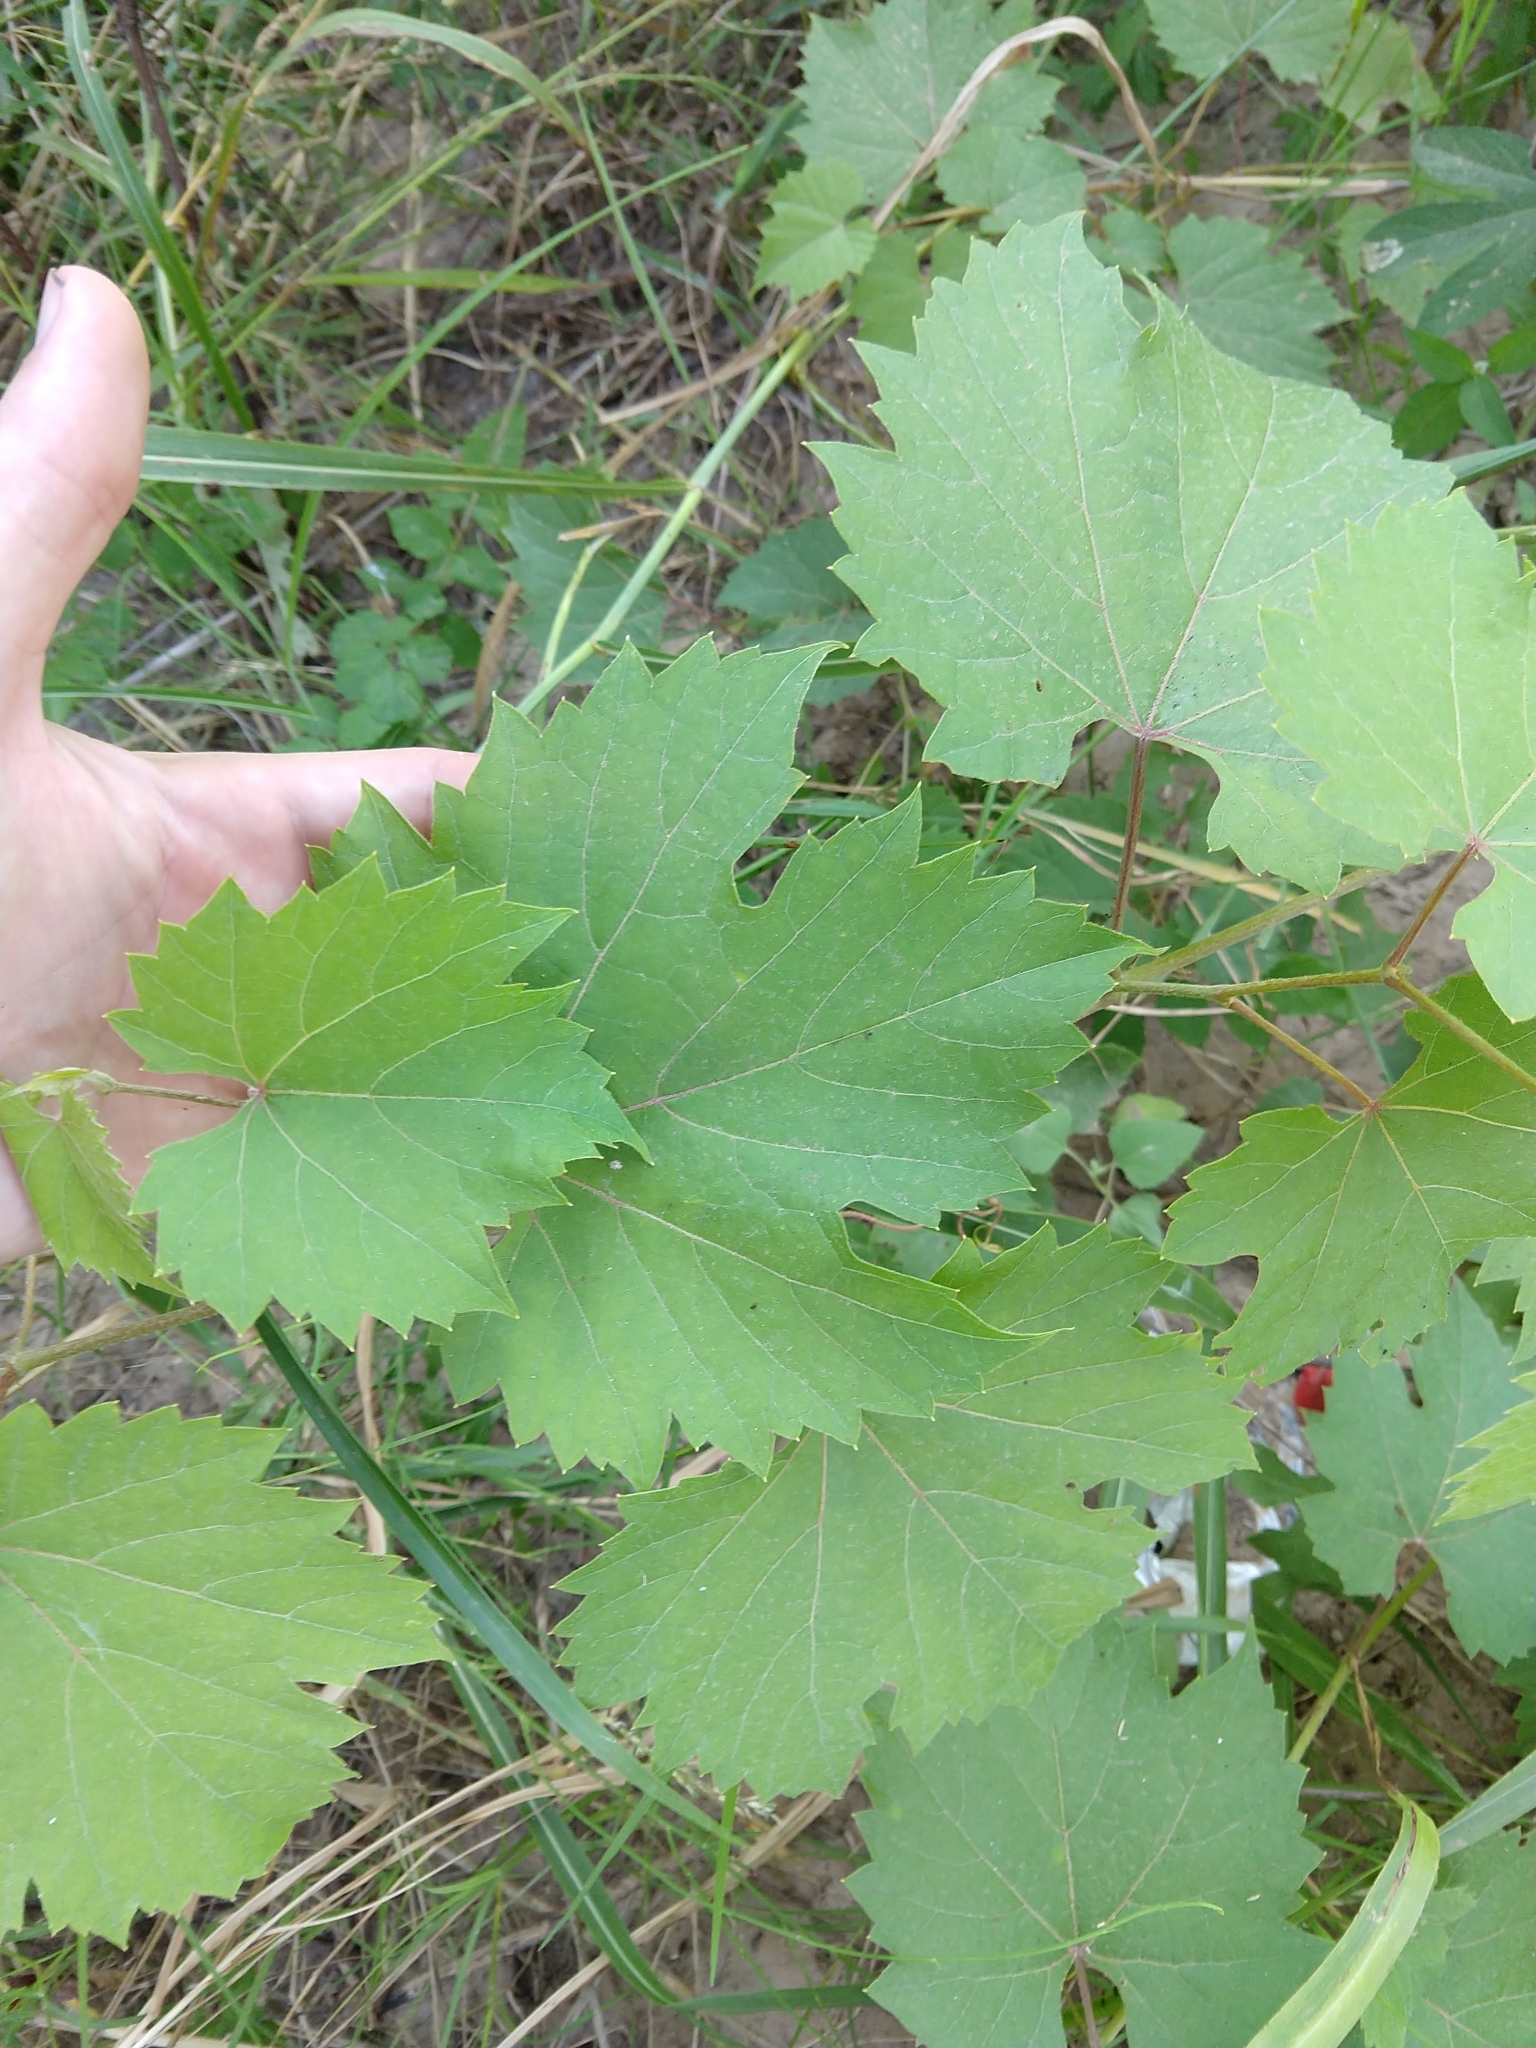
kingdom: Plantae
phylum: Tracheophyta
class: Magnoliopsida
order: Vitales
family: Vitaceae
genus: Vitis
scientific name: Vitis acerifolia
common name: Bush grape
